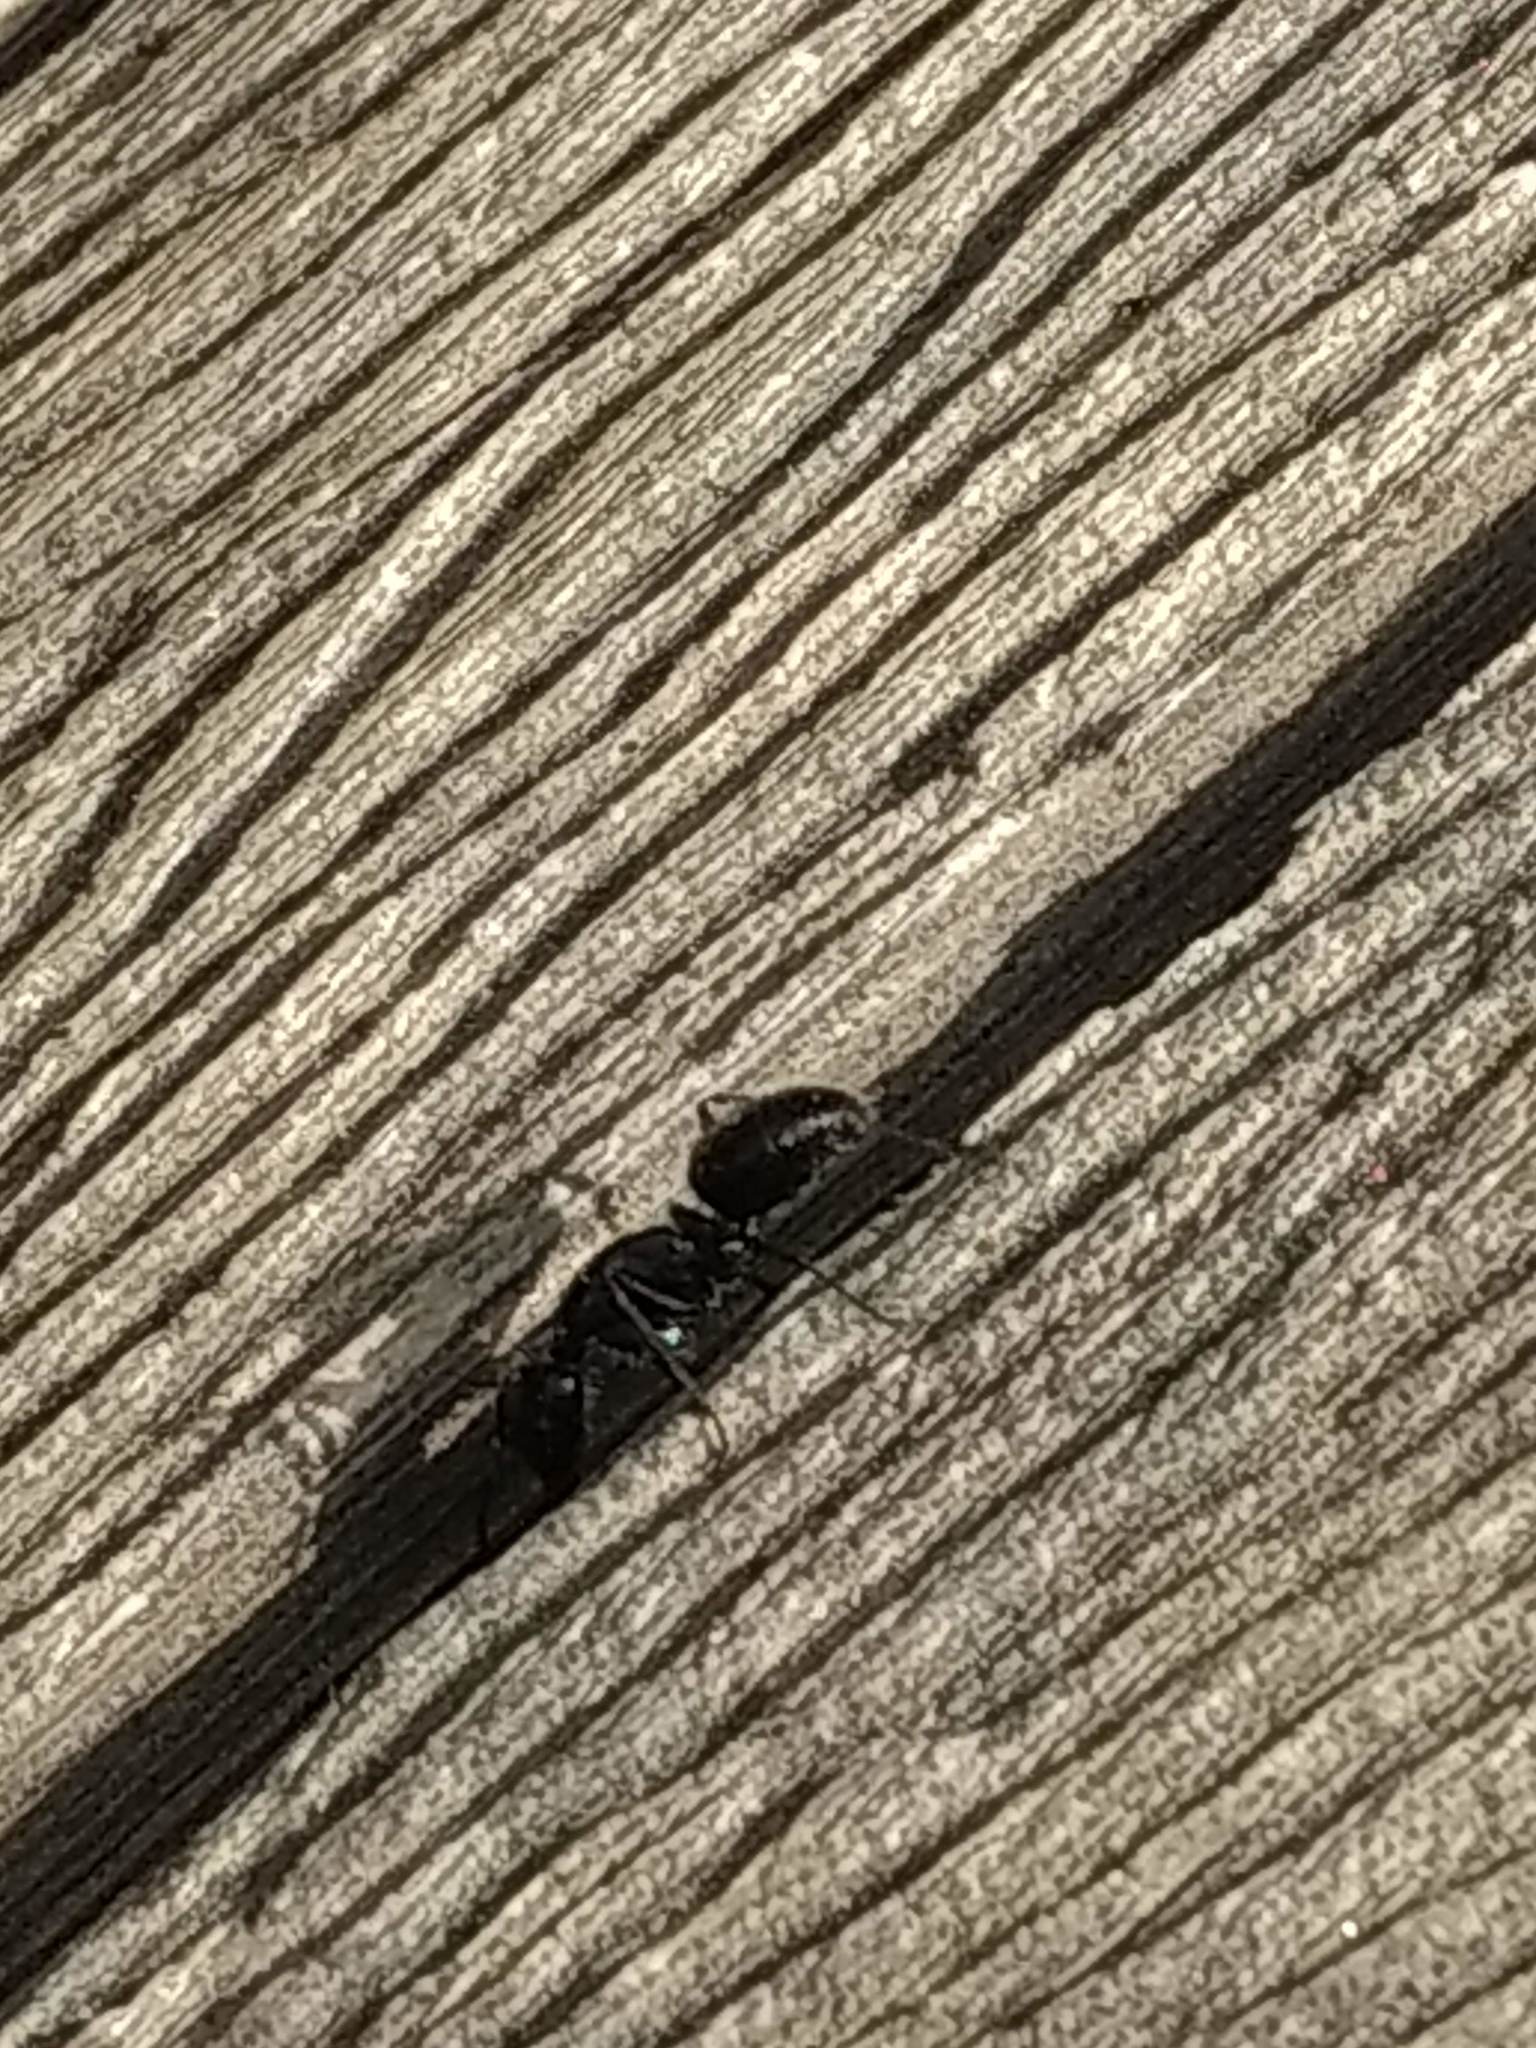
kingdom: Animalia
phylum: Arthropoda
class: Insecta
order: Hymenoptera
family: Formicidae
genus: Camponotus
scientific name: Camponotus
